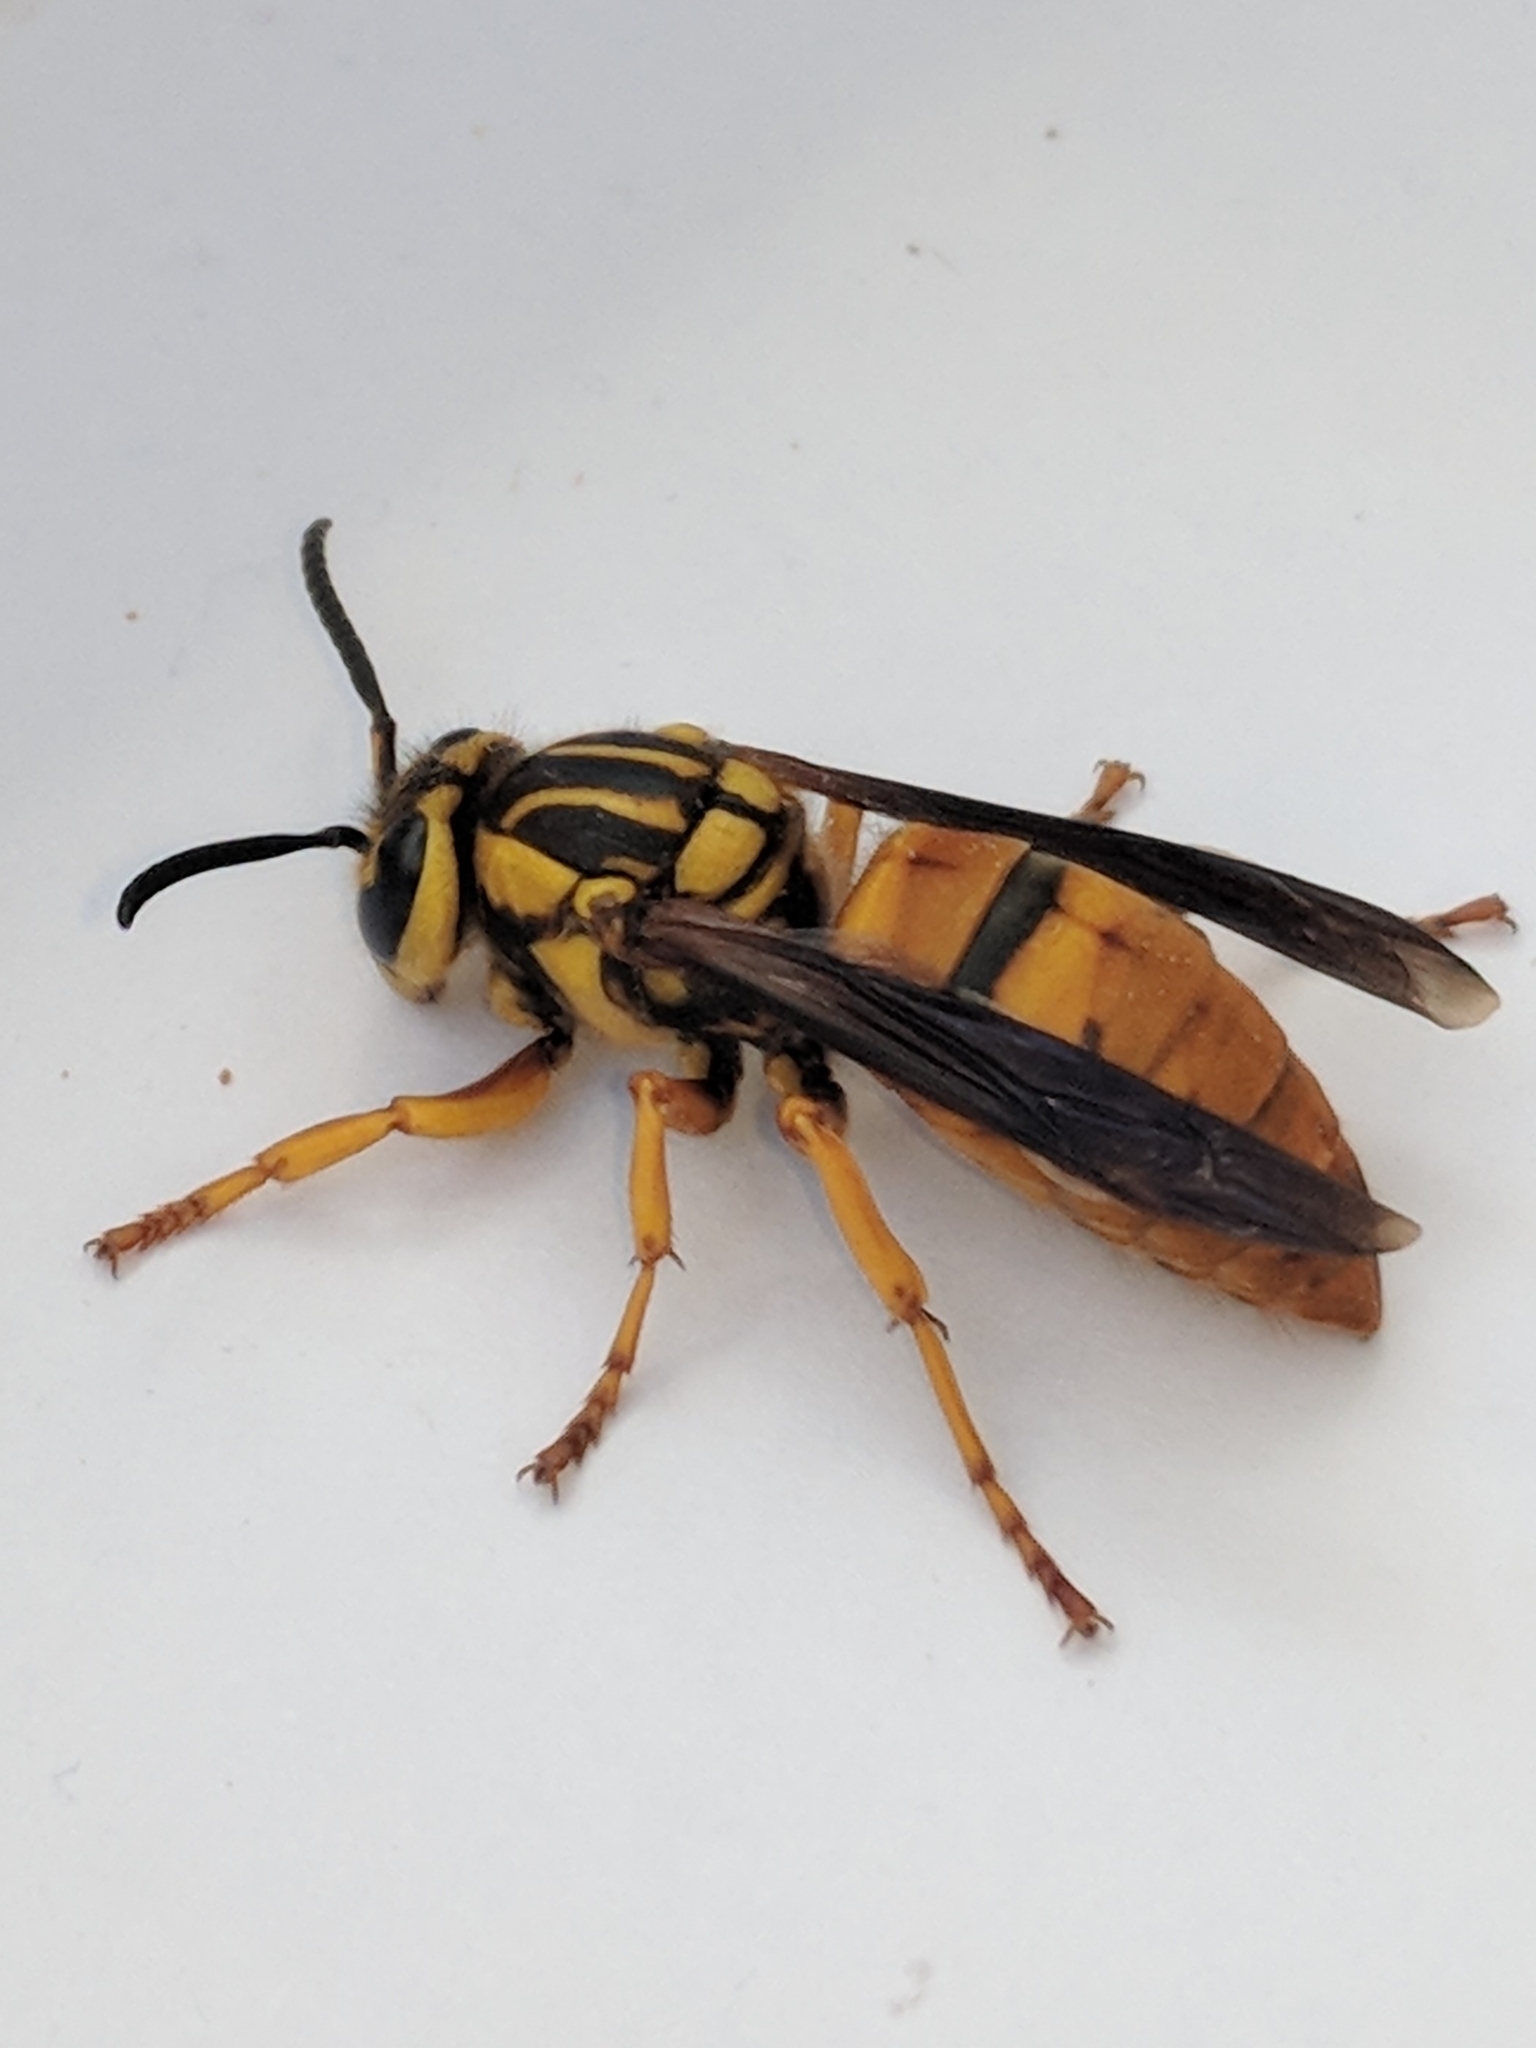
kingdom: Animalia
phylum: Arthropoda
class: Insecta
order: Hymenoptera
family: Vespidae
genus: Vespula
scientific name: Vespula squamosa
